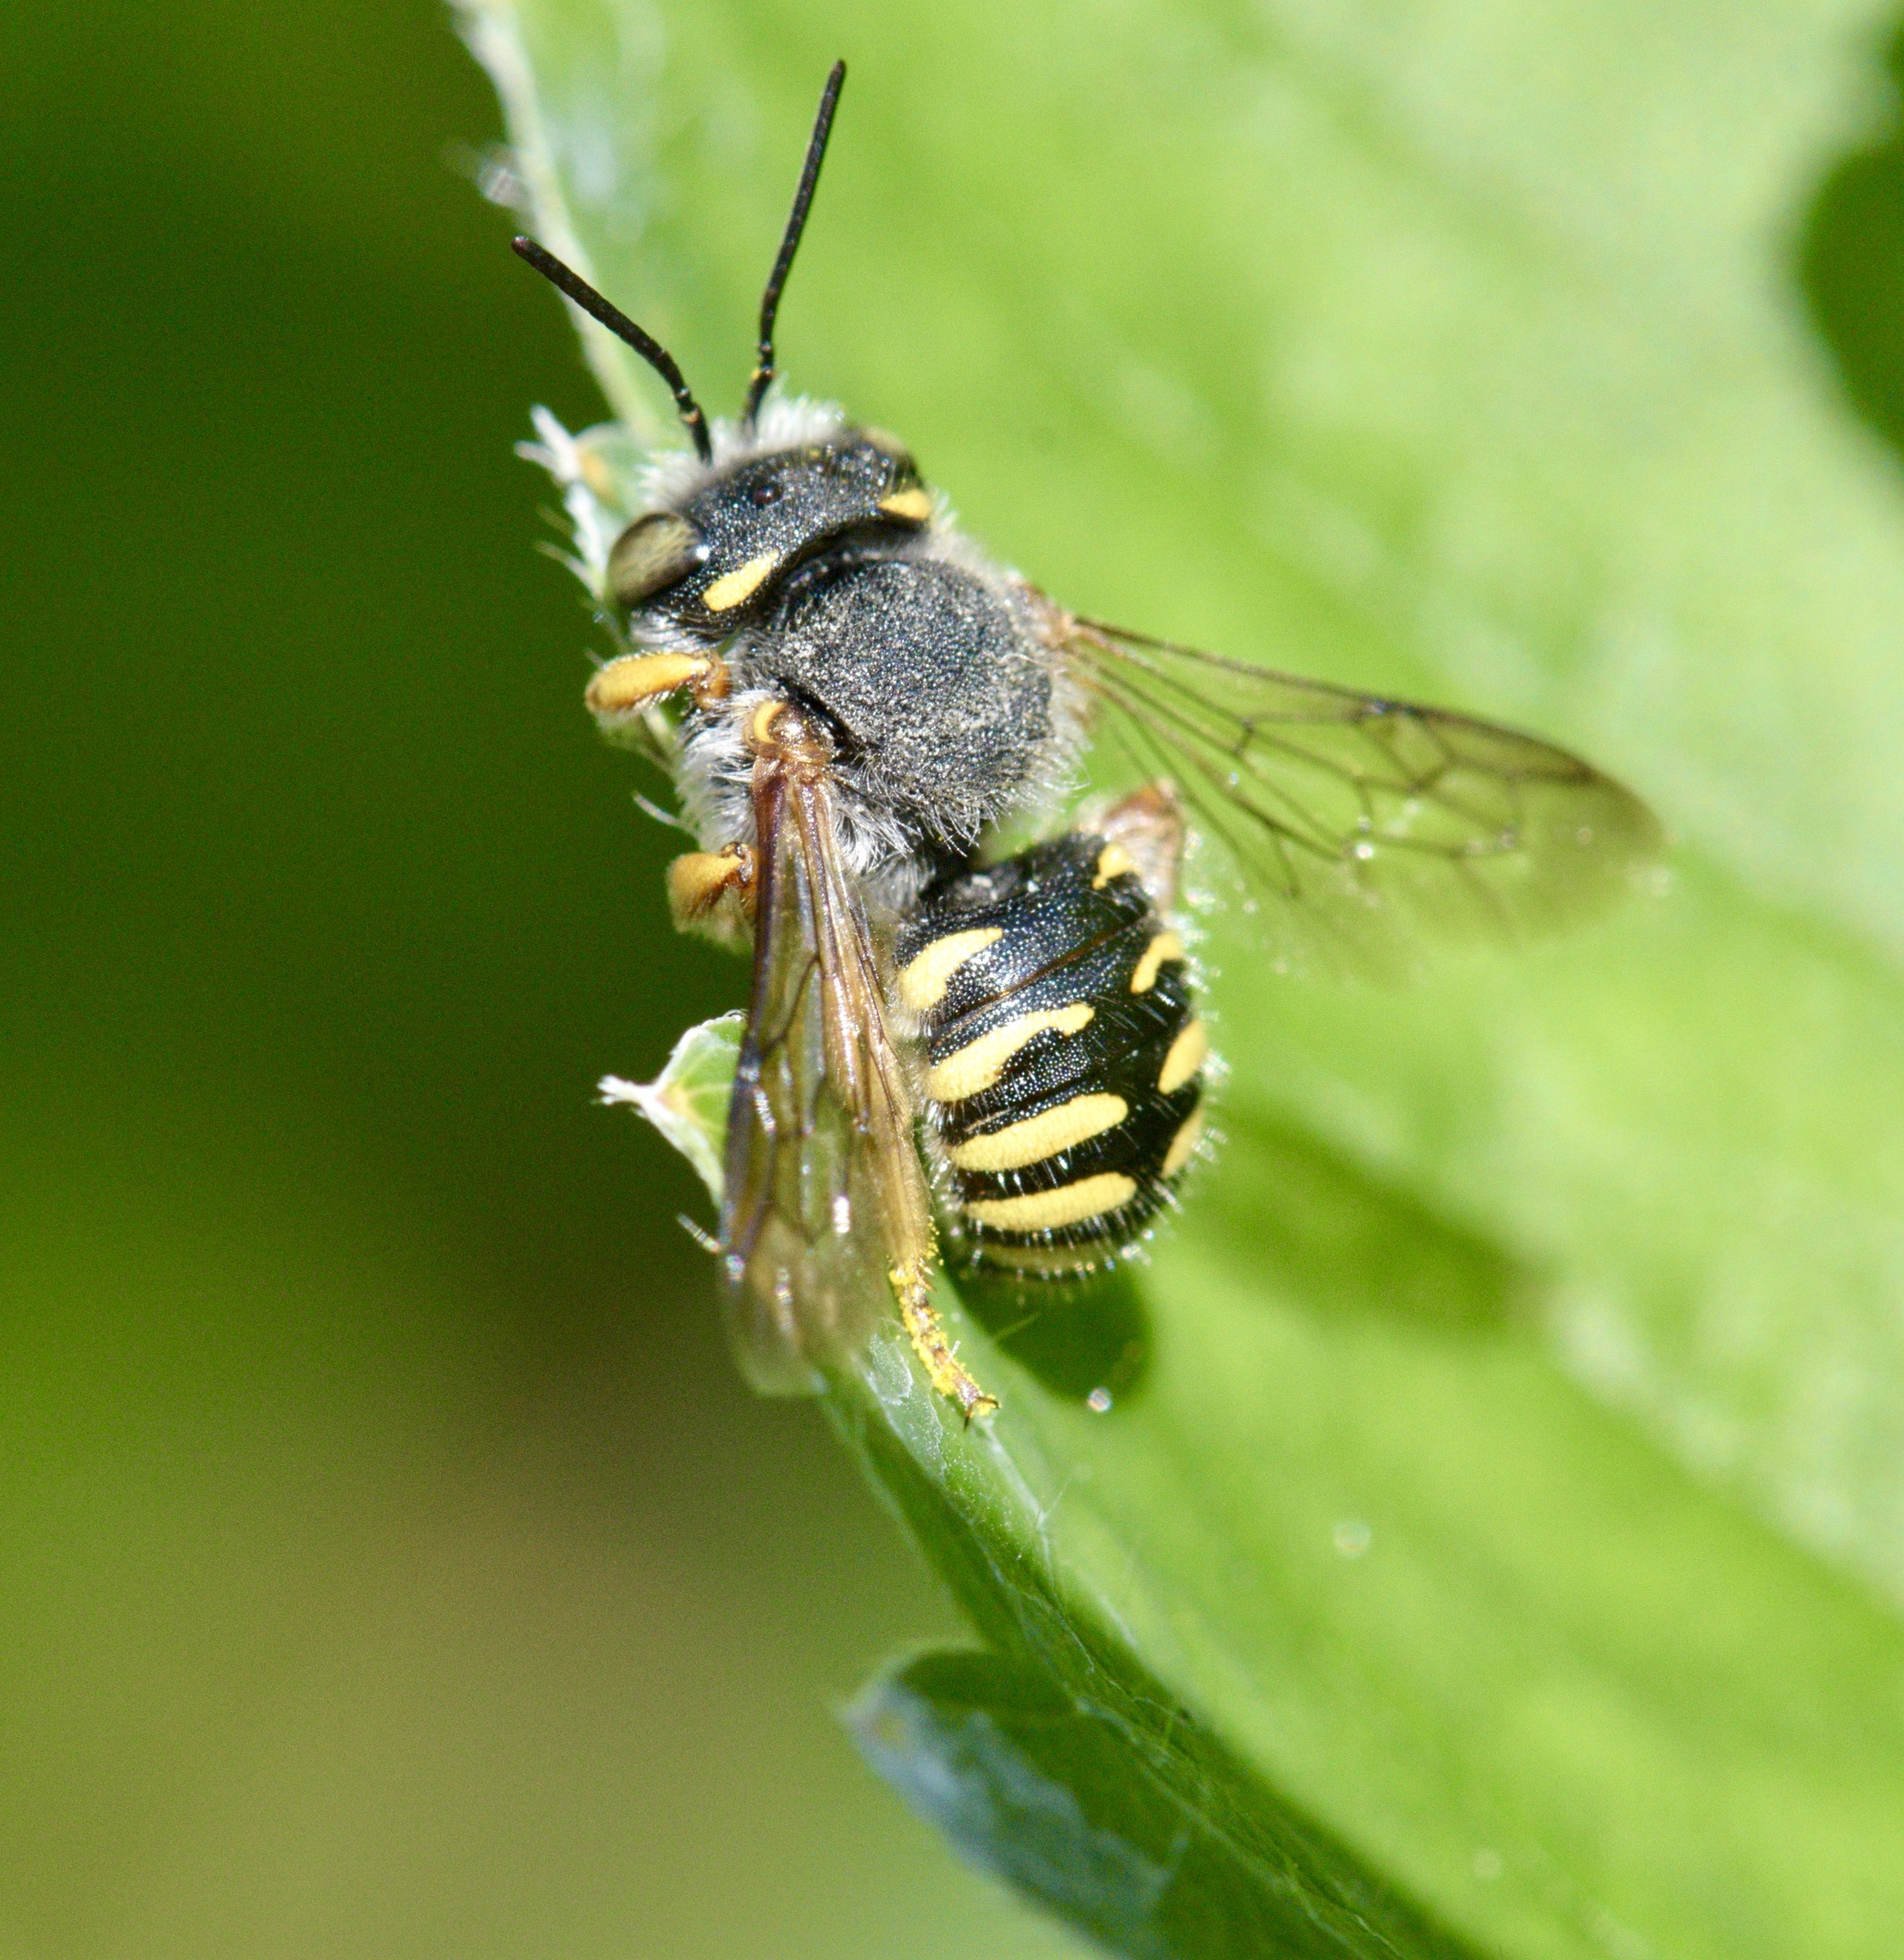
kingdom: Animalia
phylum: Arthropoda
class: Insecta
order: Hymenoptera
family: Megachilidae
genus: Anthidium
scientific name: Anthidium oblongatum
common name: Oblong wool carder bee
